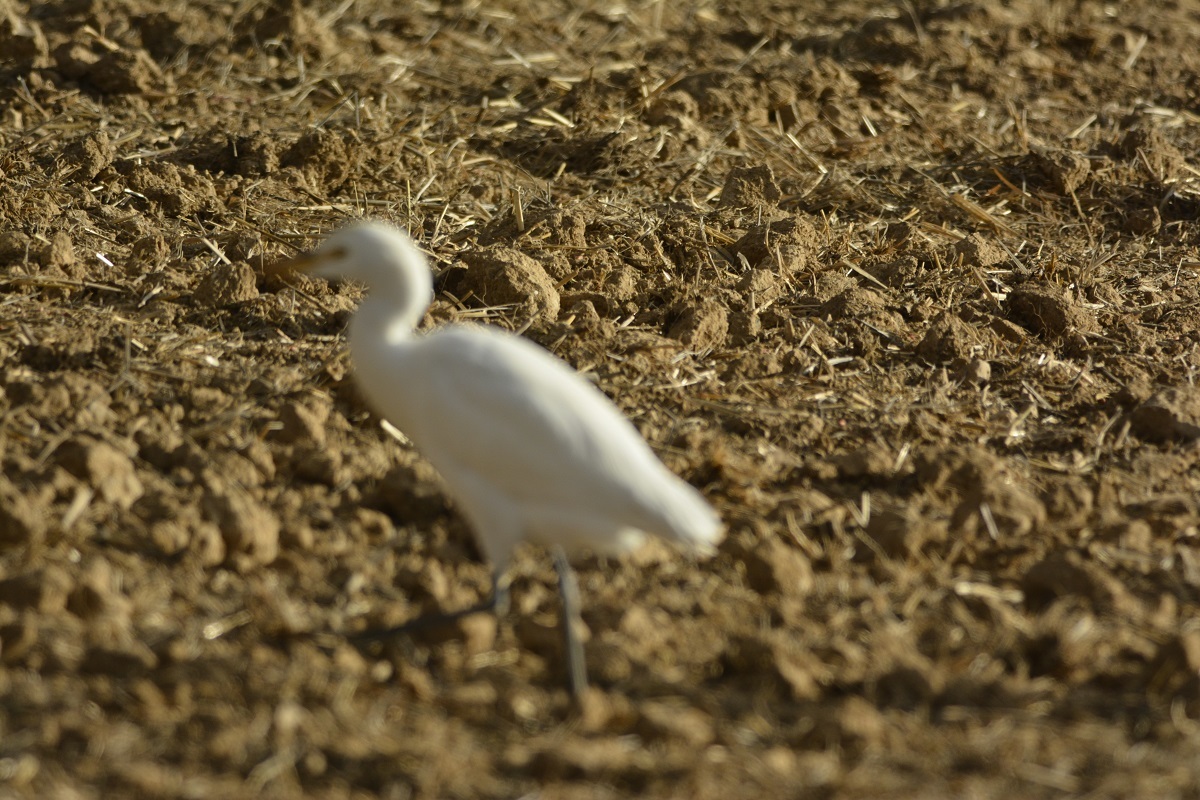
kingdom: Animalia
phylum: Chordata
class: Aves
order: Pelecaniformes
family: Ardeidae
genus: Bubulcus
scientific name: Bubulcus ibis
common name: Cattle egret
